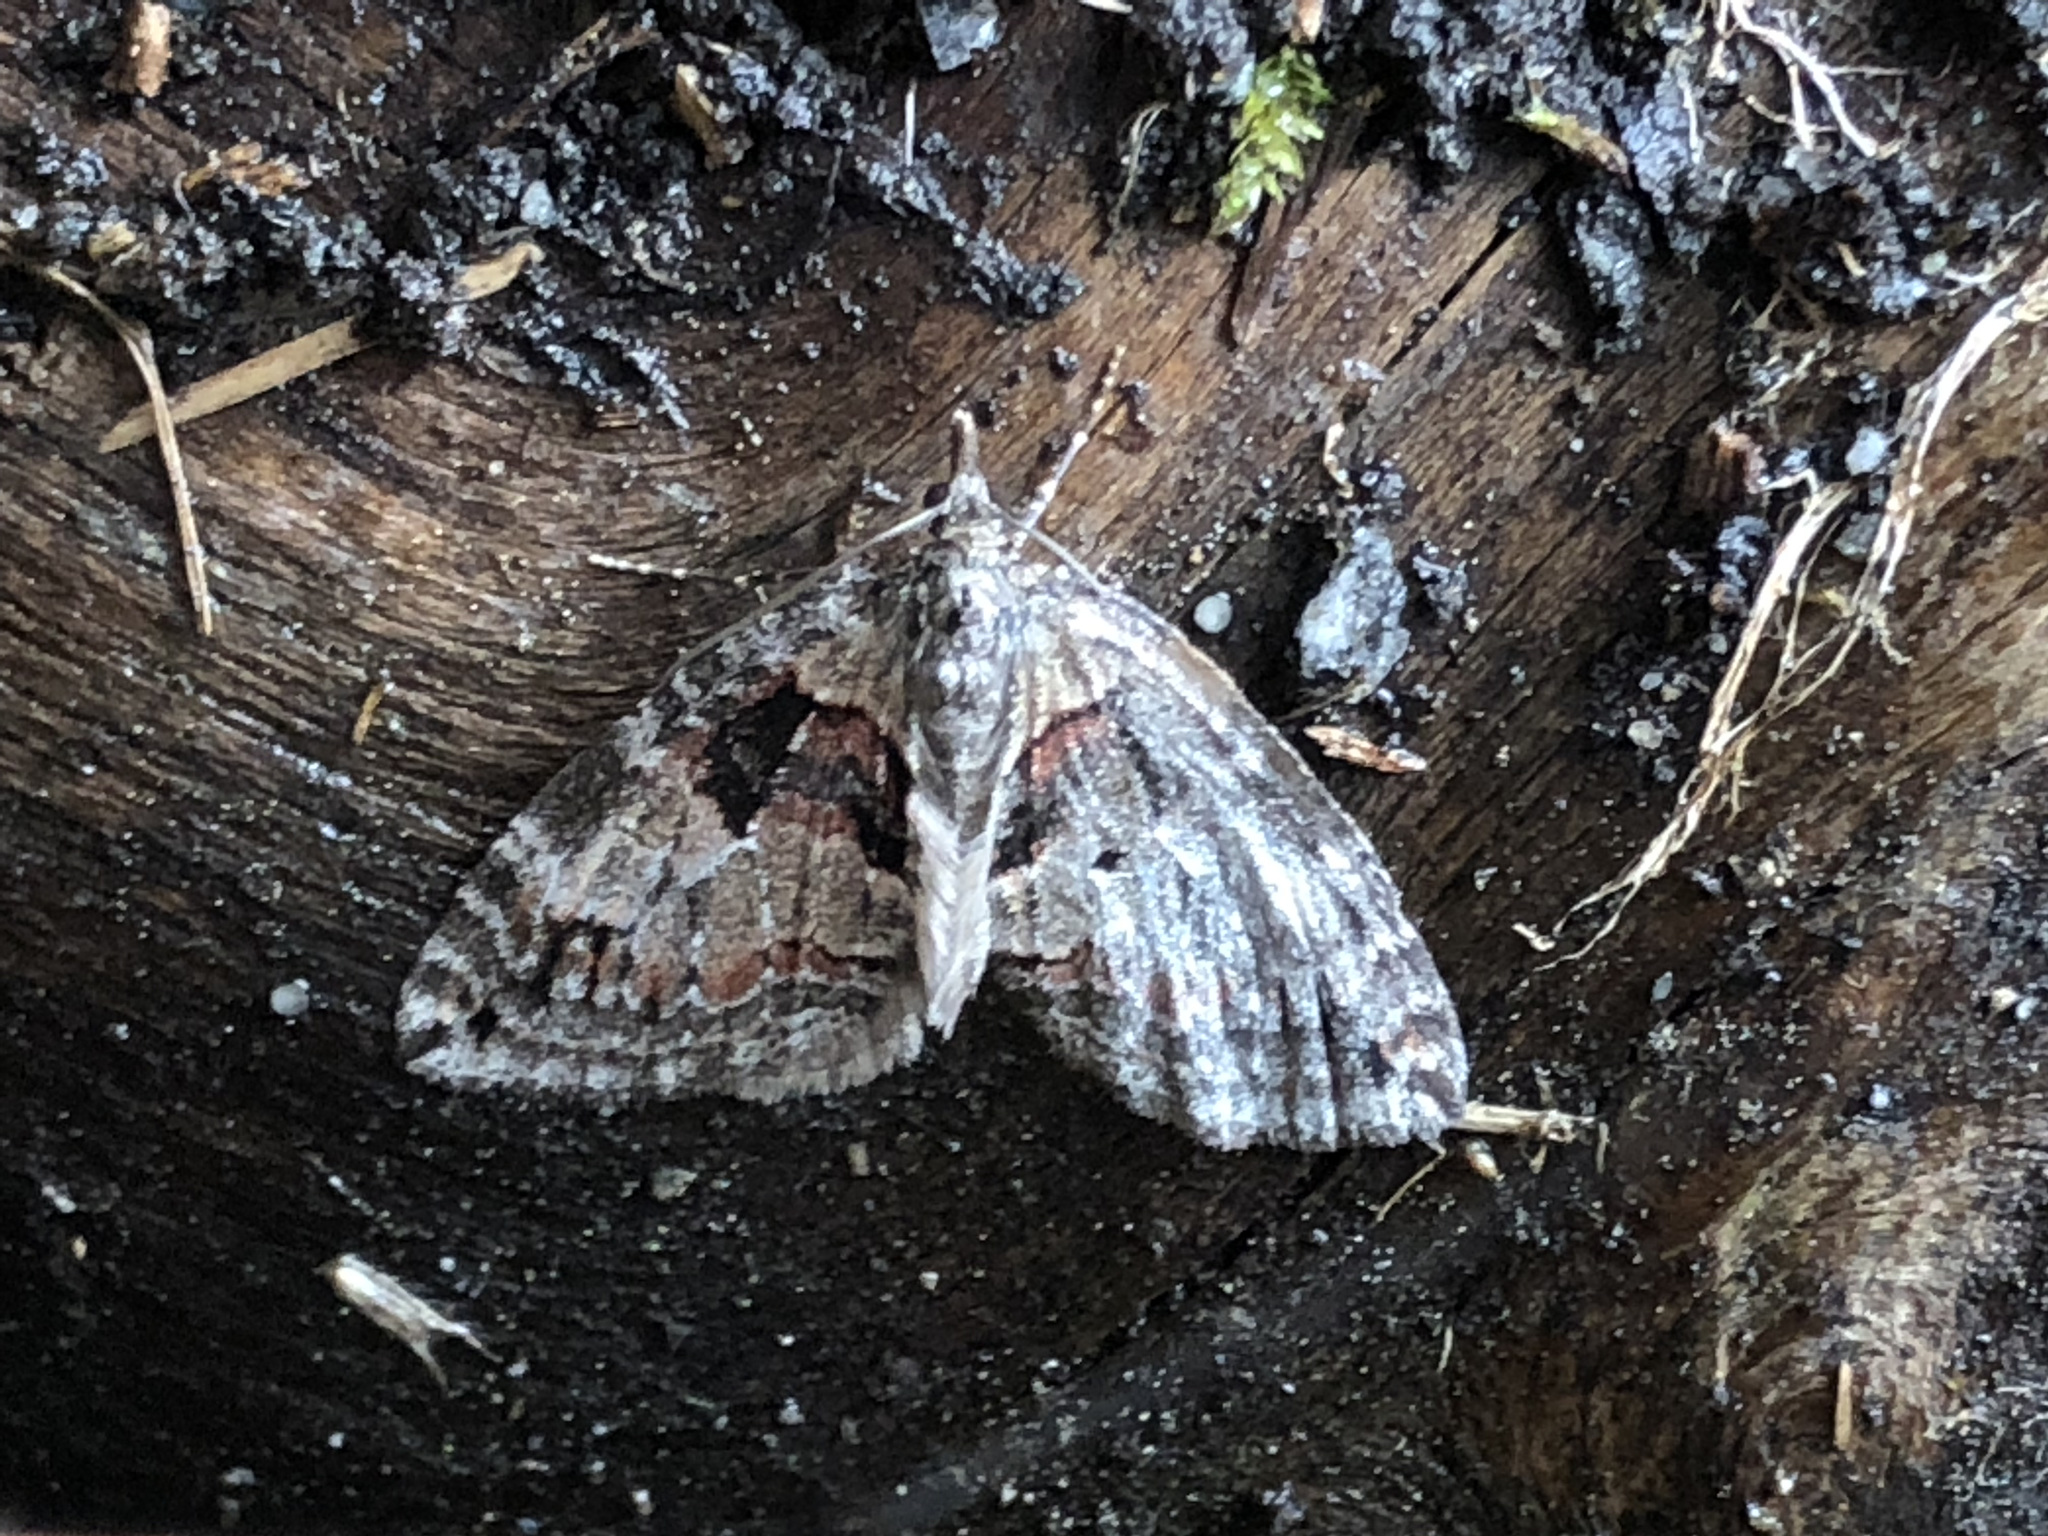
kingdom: Animalia
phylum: Arthropoda
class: Insecta
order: Lepidoptera
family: Geometridae
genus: Hydriomena
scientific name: Hydriomena ruberata
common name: Ruddy highflyer
